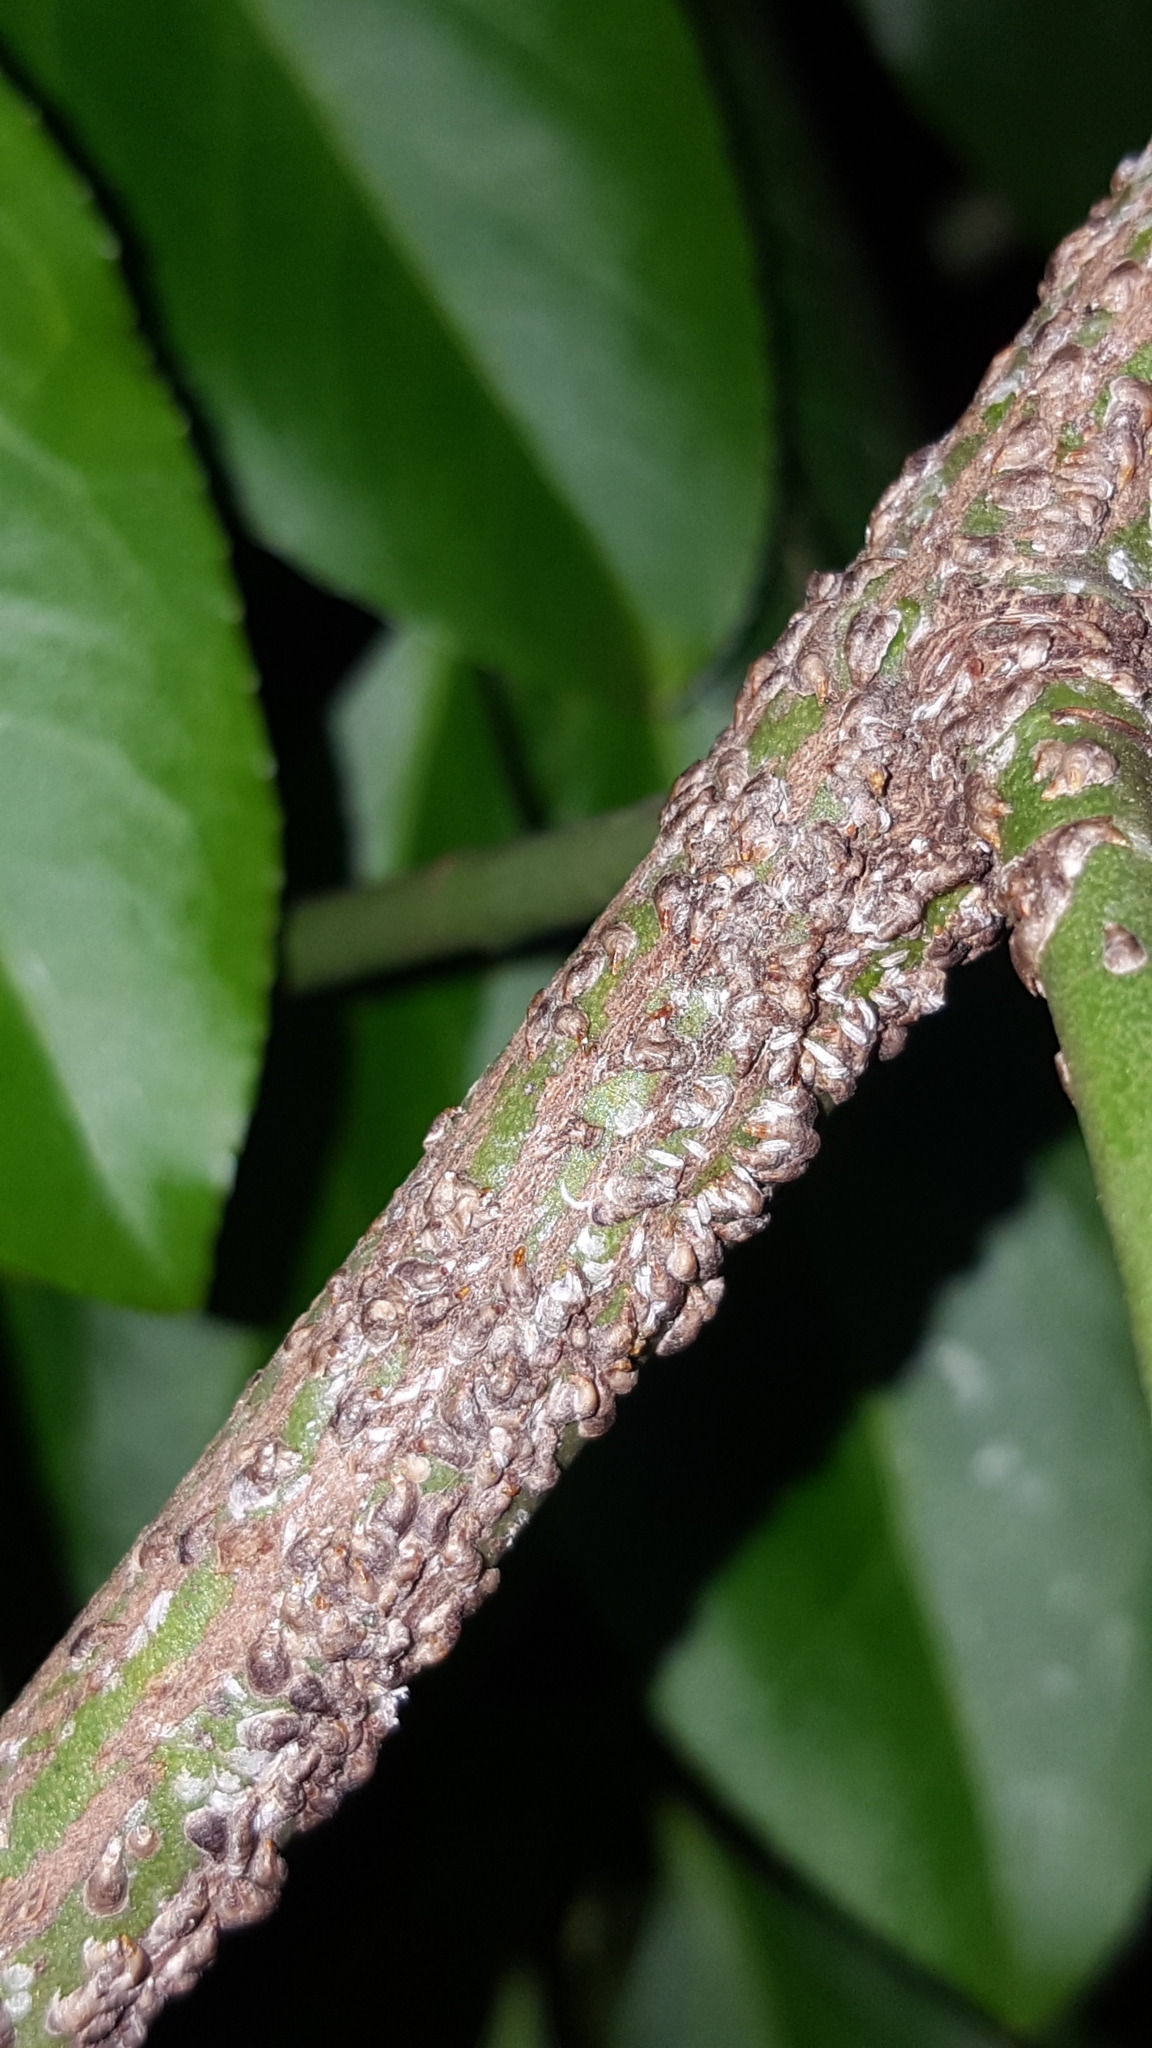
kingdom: Animalia
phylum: Arthropoda
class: Insecta
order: Hemiptera
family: Diaspididae
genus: Unaspis
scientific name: Unaspis euonymi
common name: Euonymus scale
